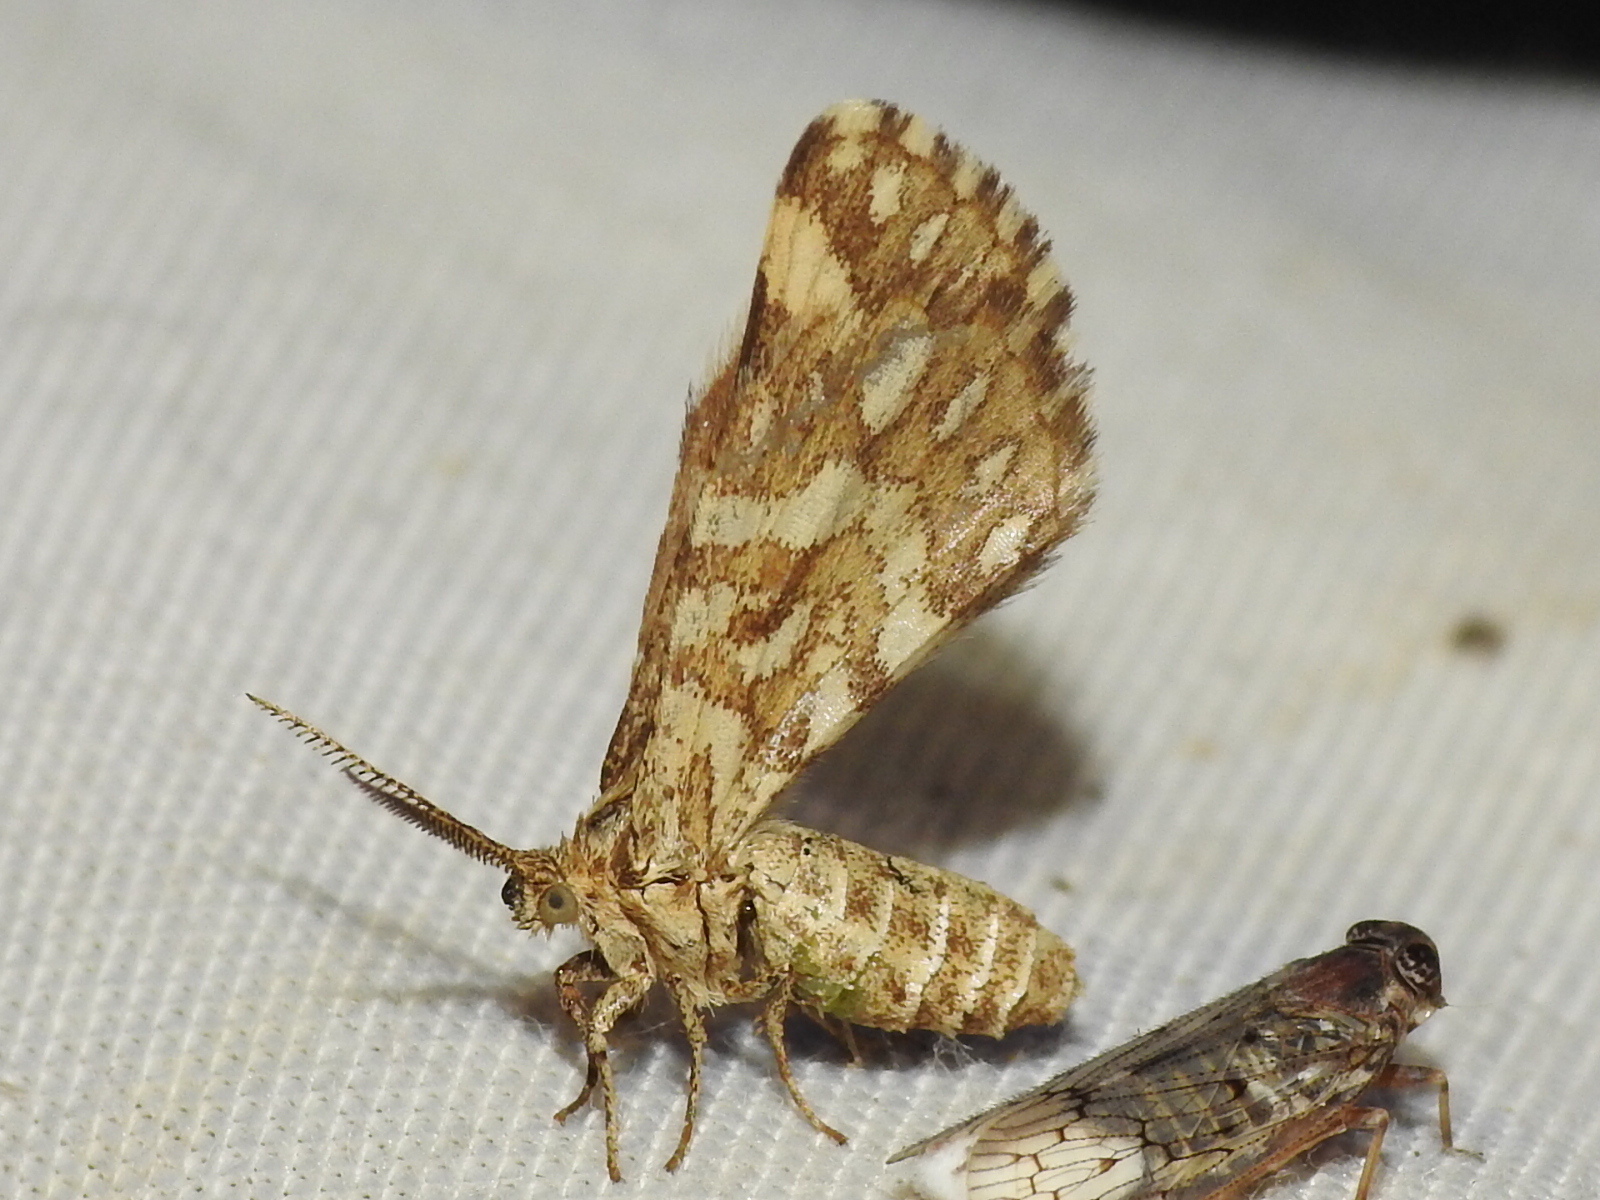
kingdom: Animalia
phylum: Arthropoda
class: Insecta
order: Lepidoptera
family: Geometridae
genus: Narraga
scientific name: Narraga fimetaria
